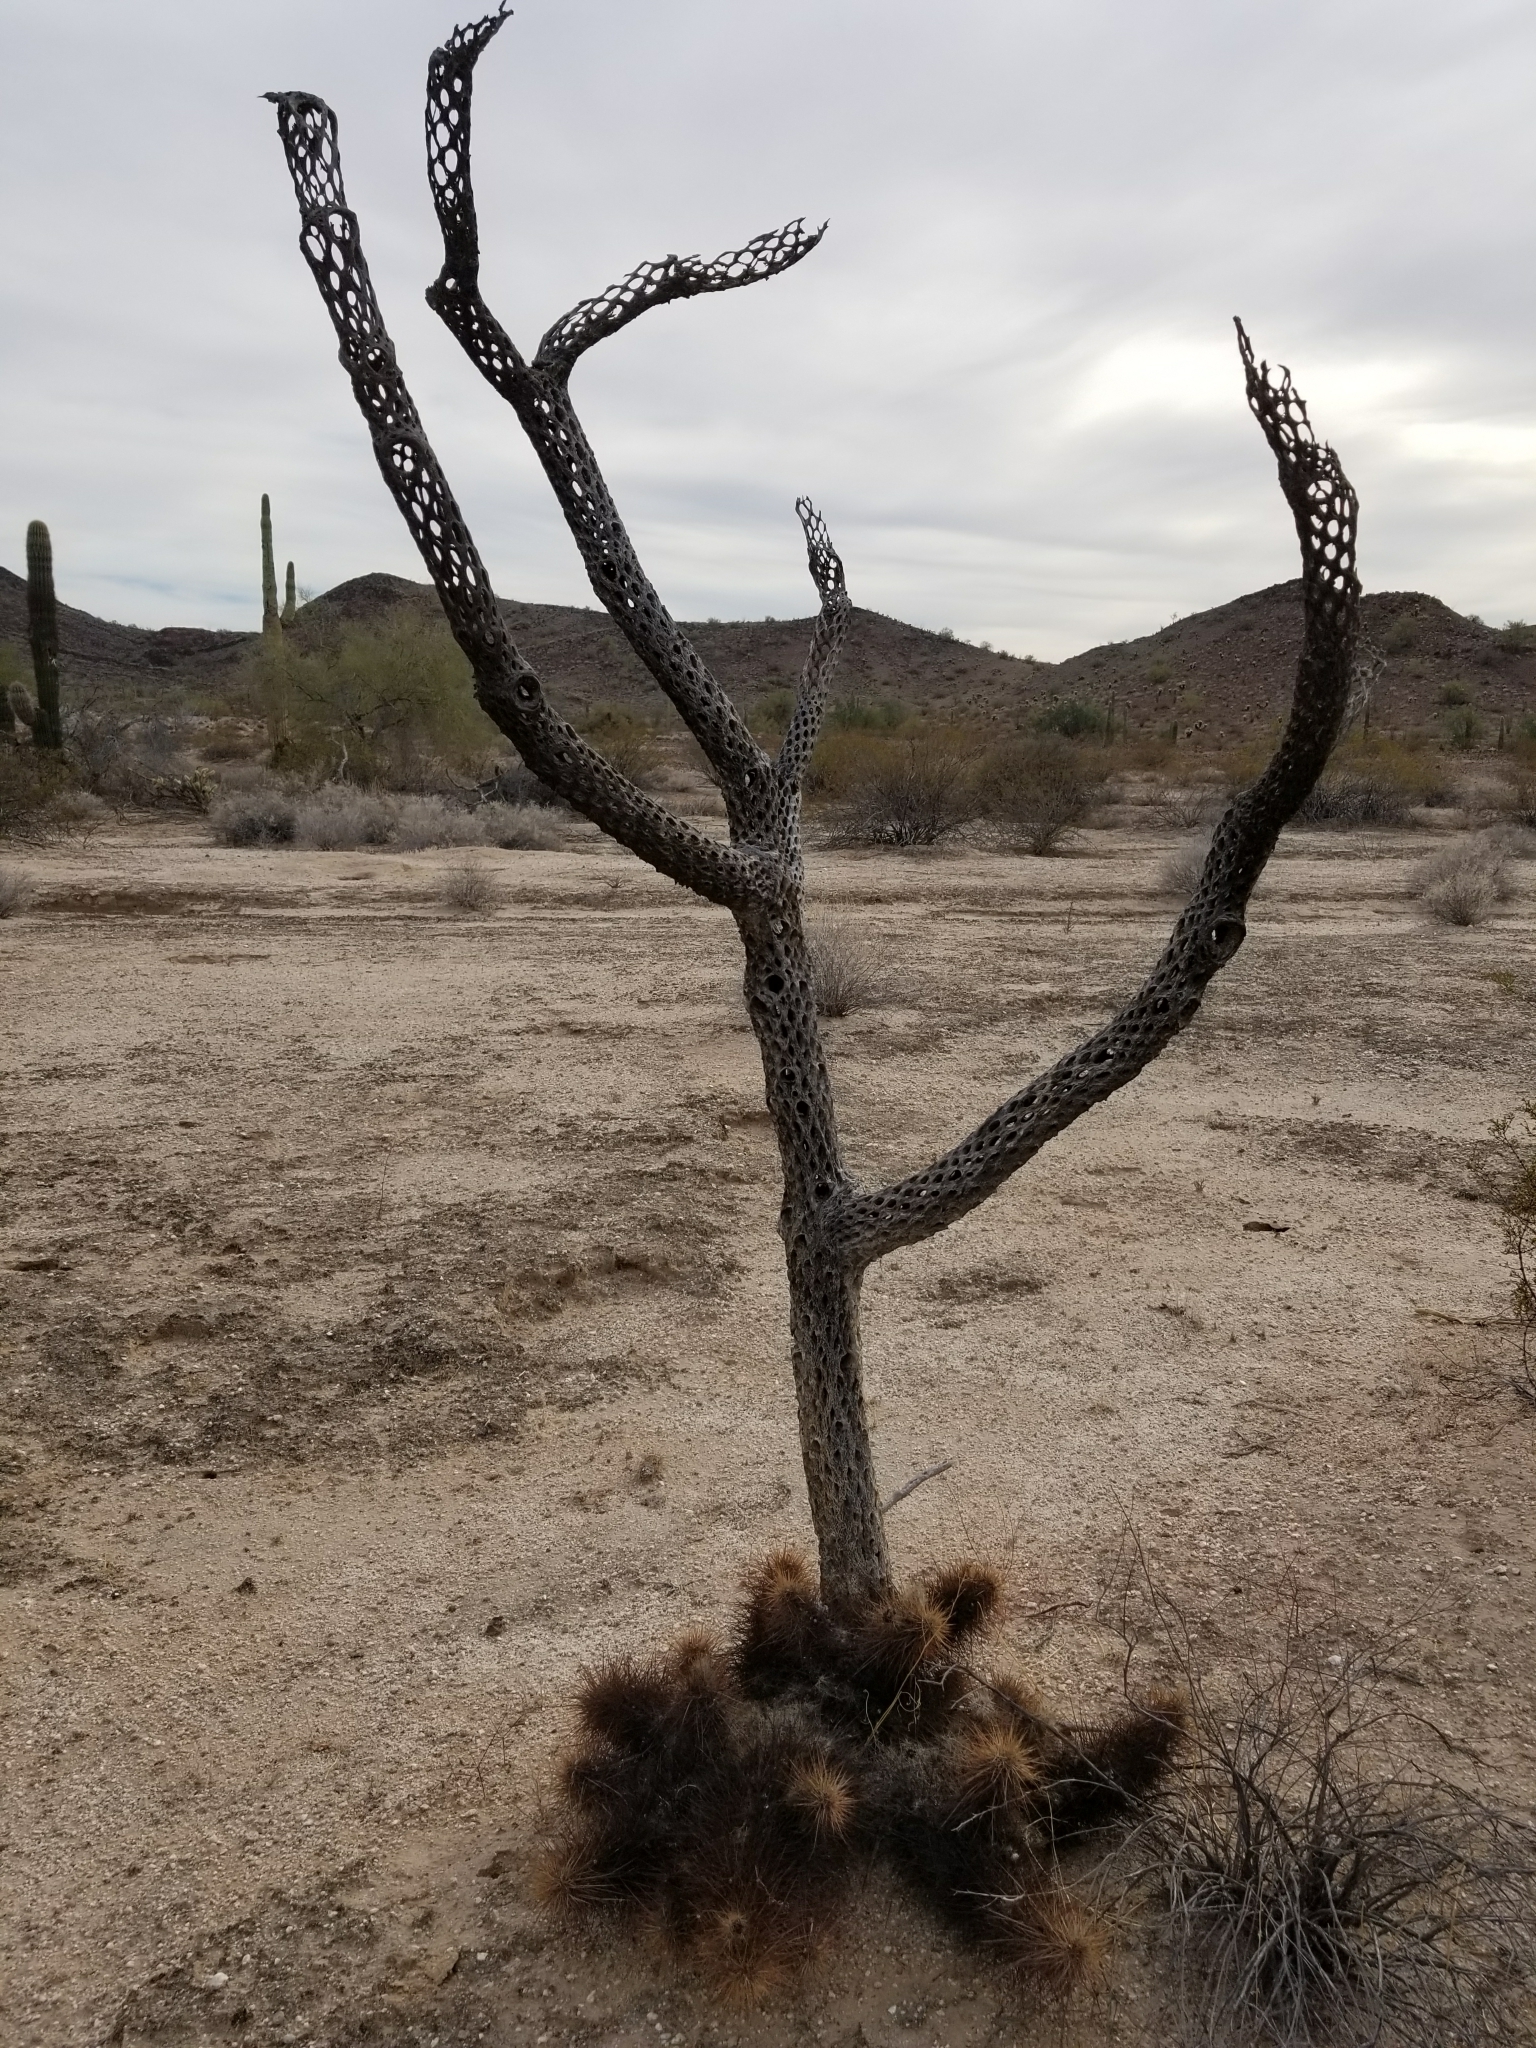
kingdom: Plantae
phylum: Tracheophyta
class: Magnoliopsida
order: Caryophyllales
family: Cactaceae
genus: Cylindropuntia
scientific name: Cylindropuntia fulgida
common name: Jumping cholla
